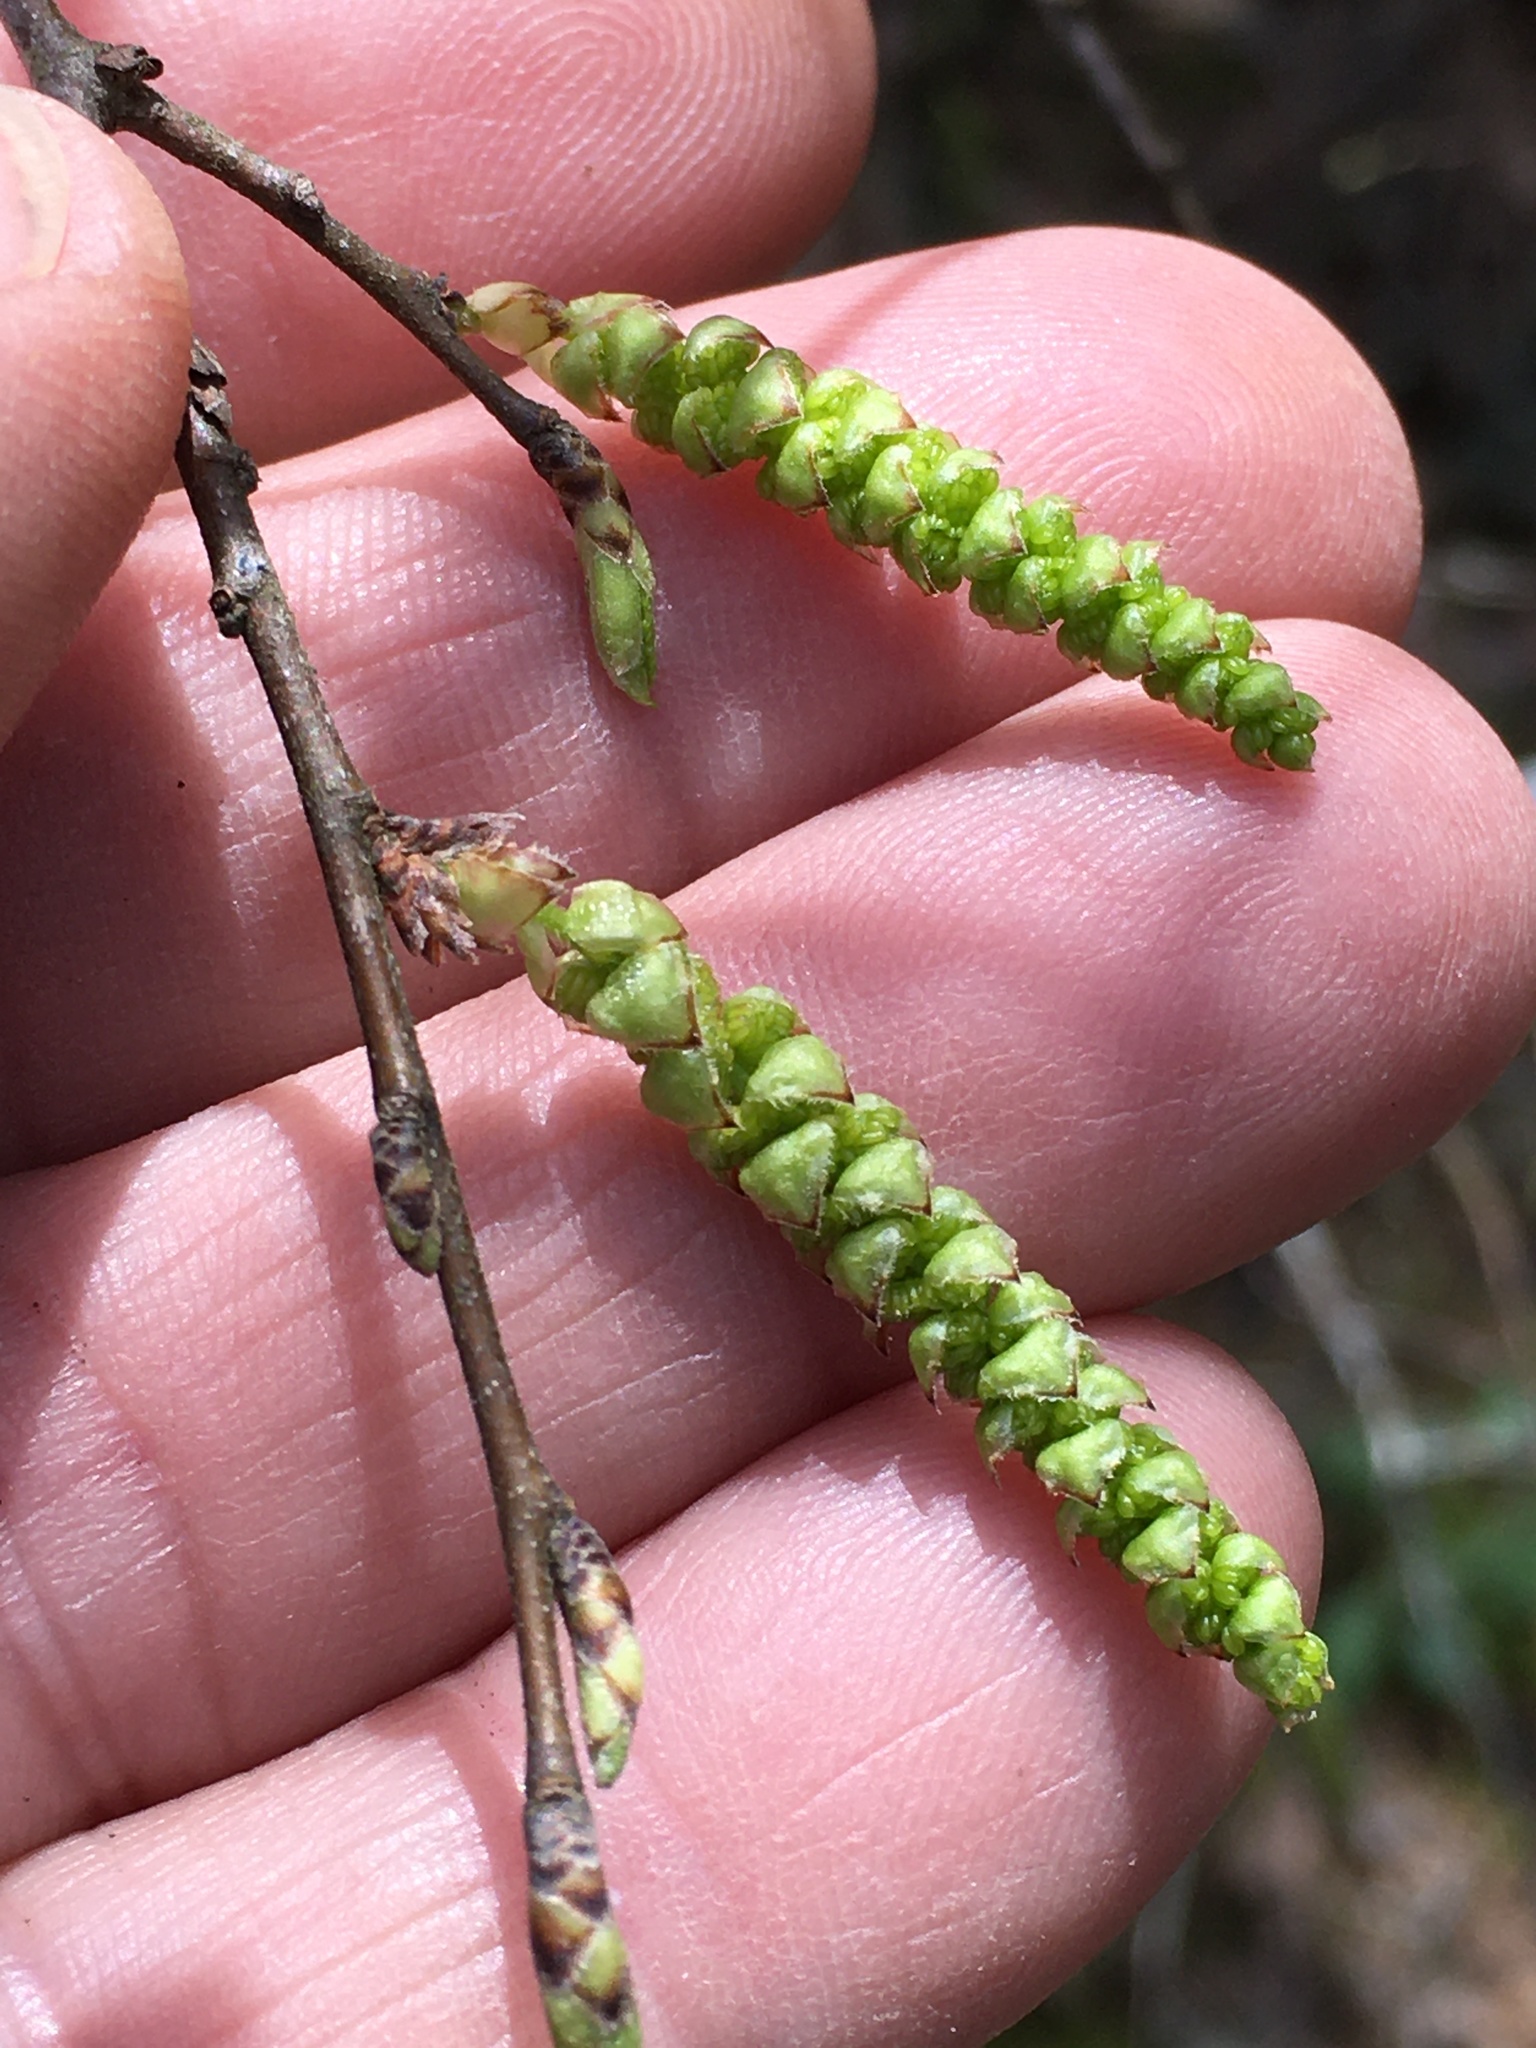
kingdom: Plantae
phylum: Tracheophyta
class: Magnoliopsida
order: Fagales
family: Betulaceae
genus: Carpinus
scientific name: Carpinus caroliniana
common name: American hornbeam
